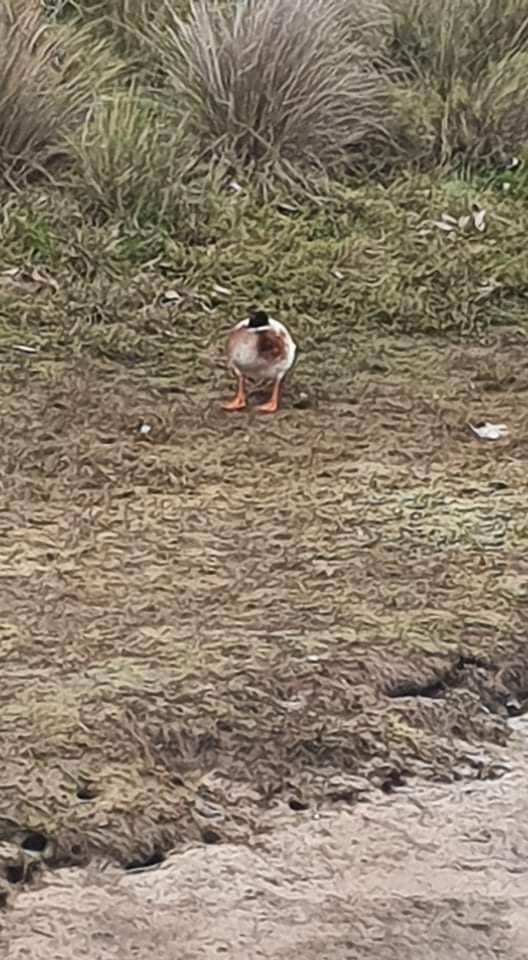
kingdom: Animalia
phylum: Chordata
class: Aves
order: Anseriformes
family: Anatidae
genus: Anas
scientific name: Anas platyrhynchos
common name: Mallard
